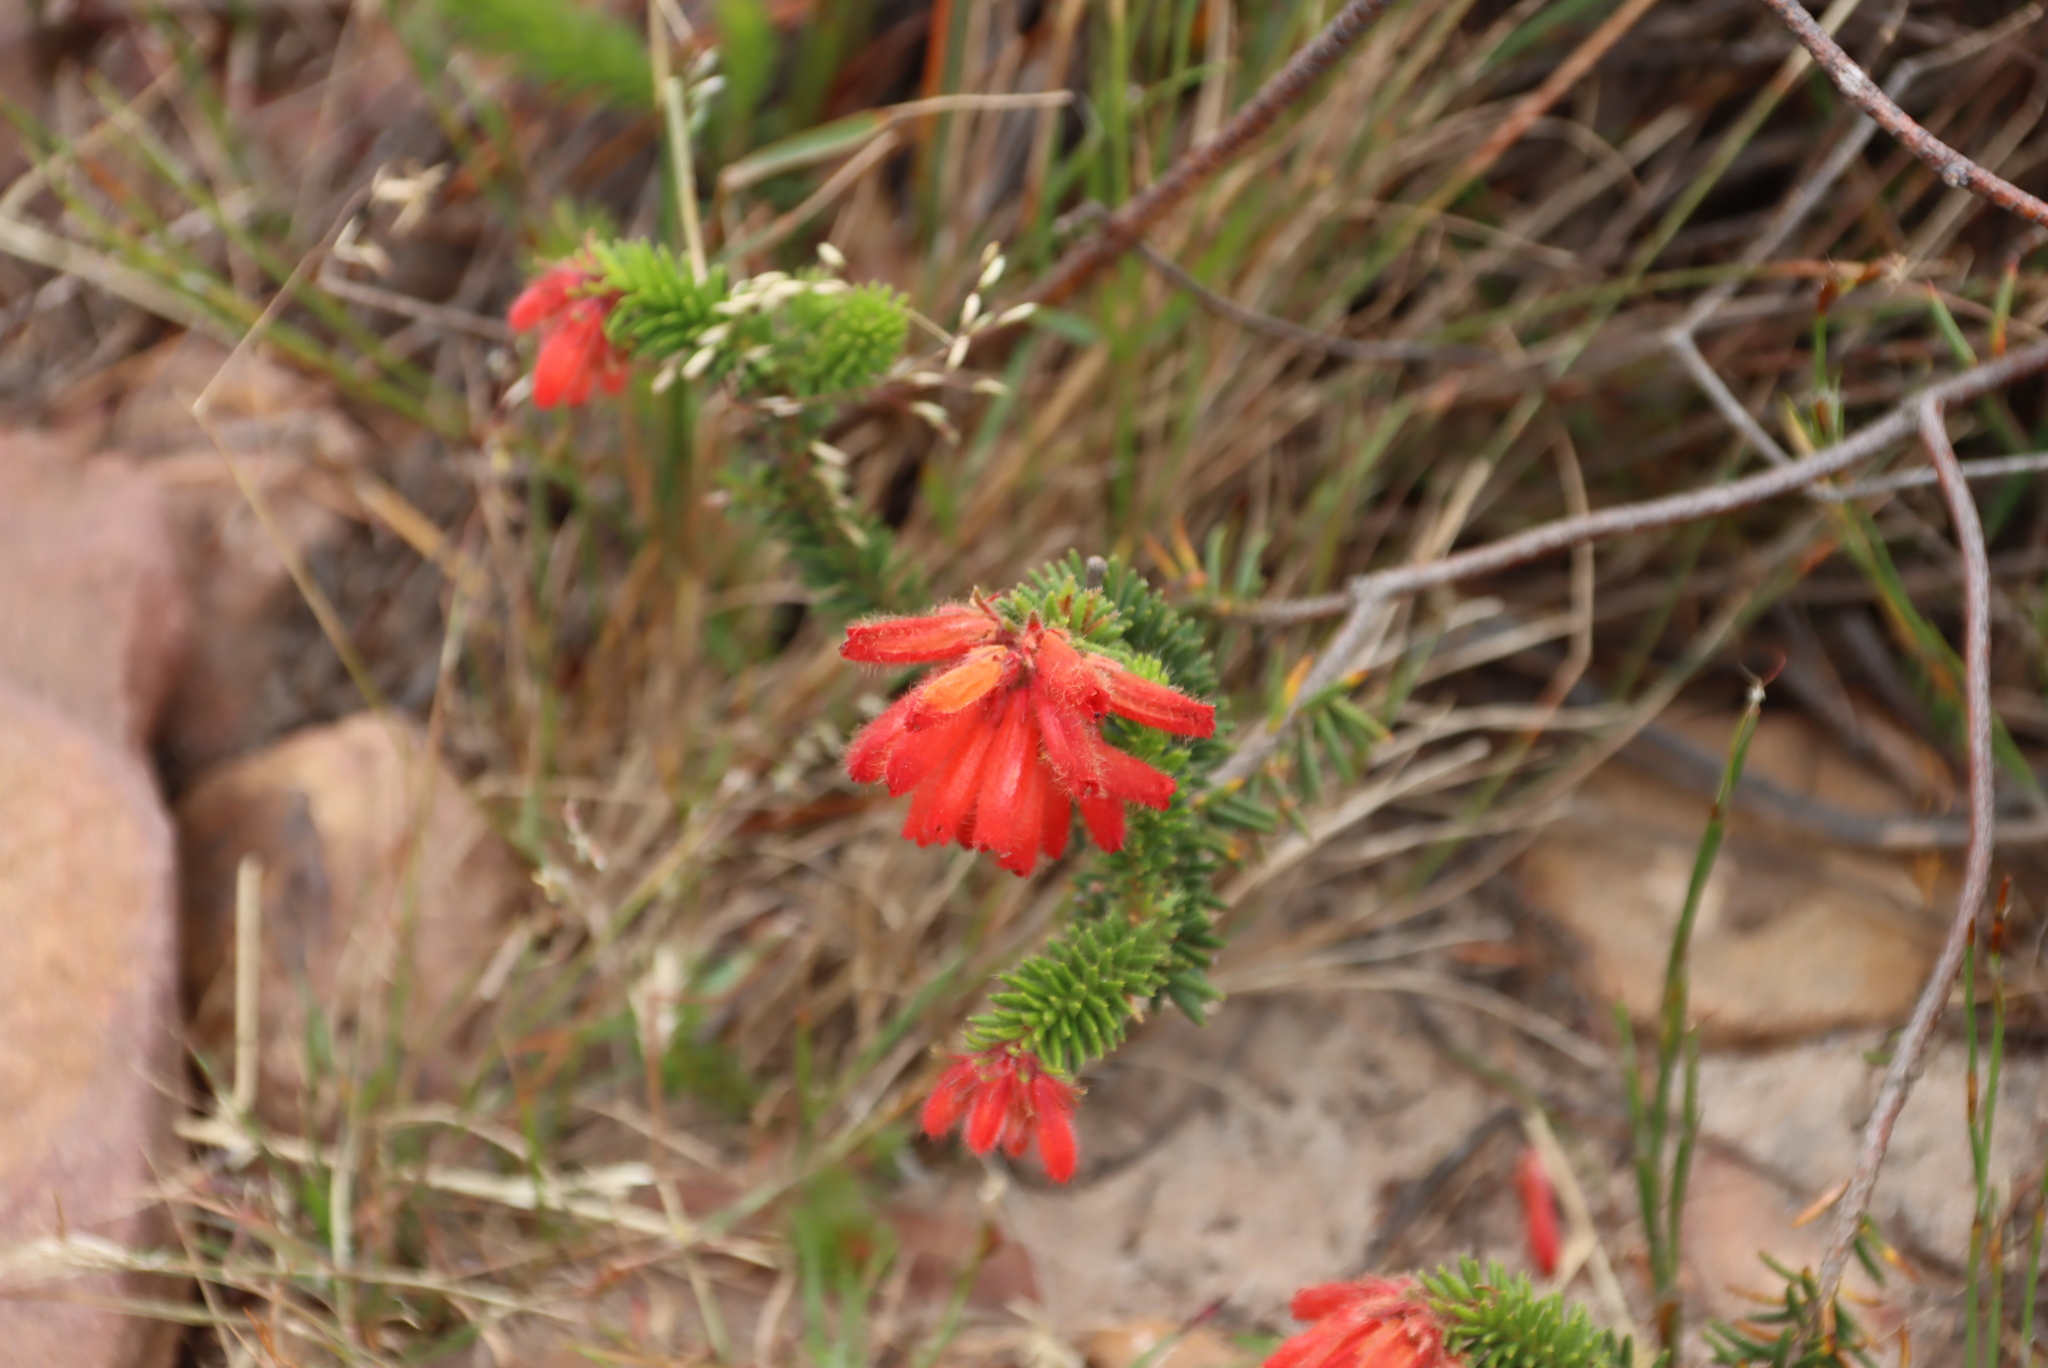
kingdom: Plantae
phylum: Tracheophyta
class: Magnoliopsida
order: Ericales
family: Ericaceae
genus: Erica
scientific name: Erica cerinthoides
